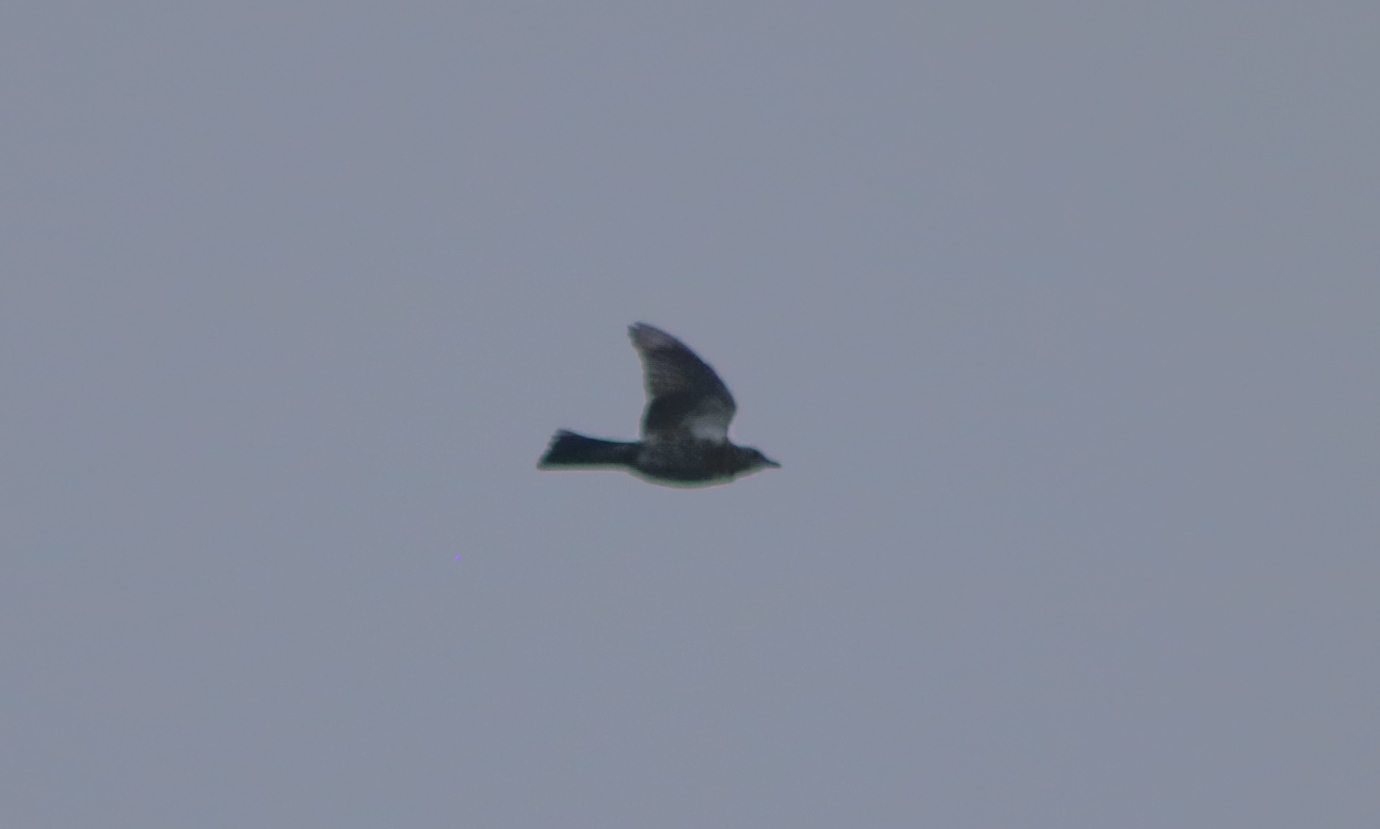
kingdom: Animalia
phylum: Chordata
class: Aves
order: Passeriformes
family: Turdidae
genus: Turdus
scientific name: Turdus pilaris
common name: Fieldfare
